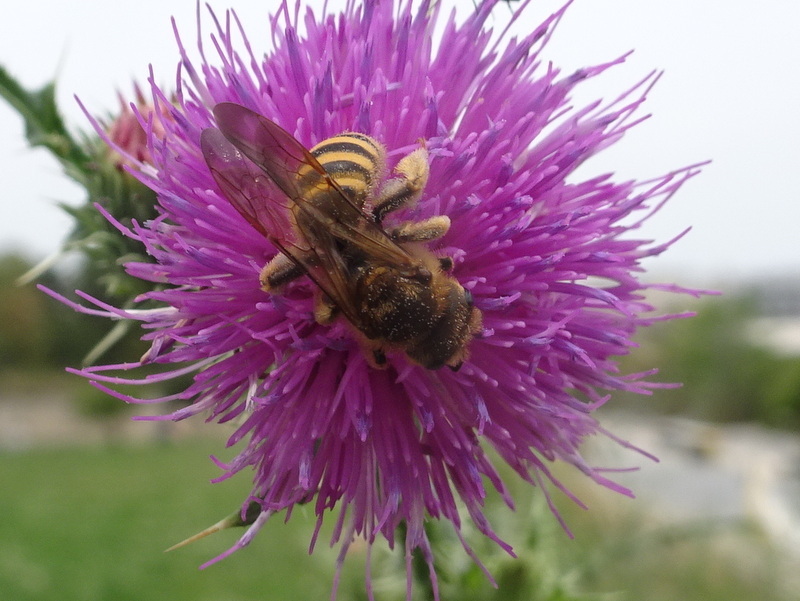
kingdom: Animalia
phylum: Arthropoda
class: Insecta
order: Hymenoptera
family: Halictidae
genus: Halictus
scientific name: Halictus scabiosae
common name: Great banded furrow bee
